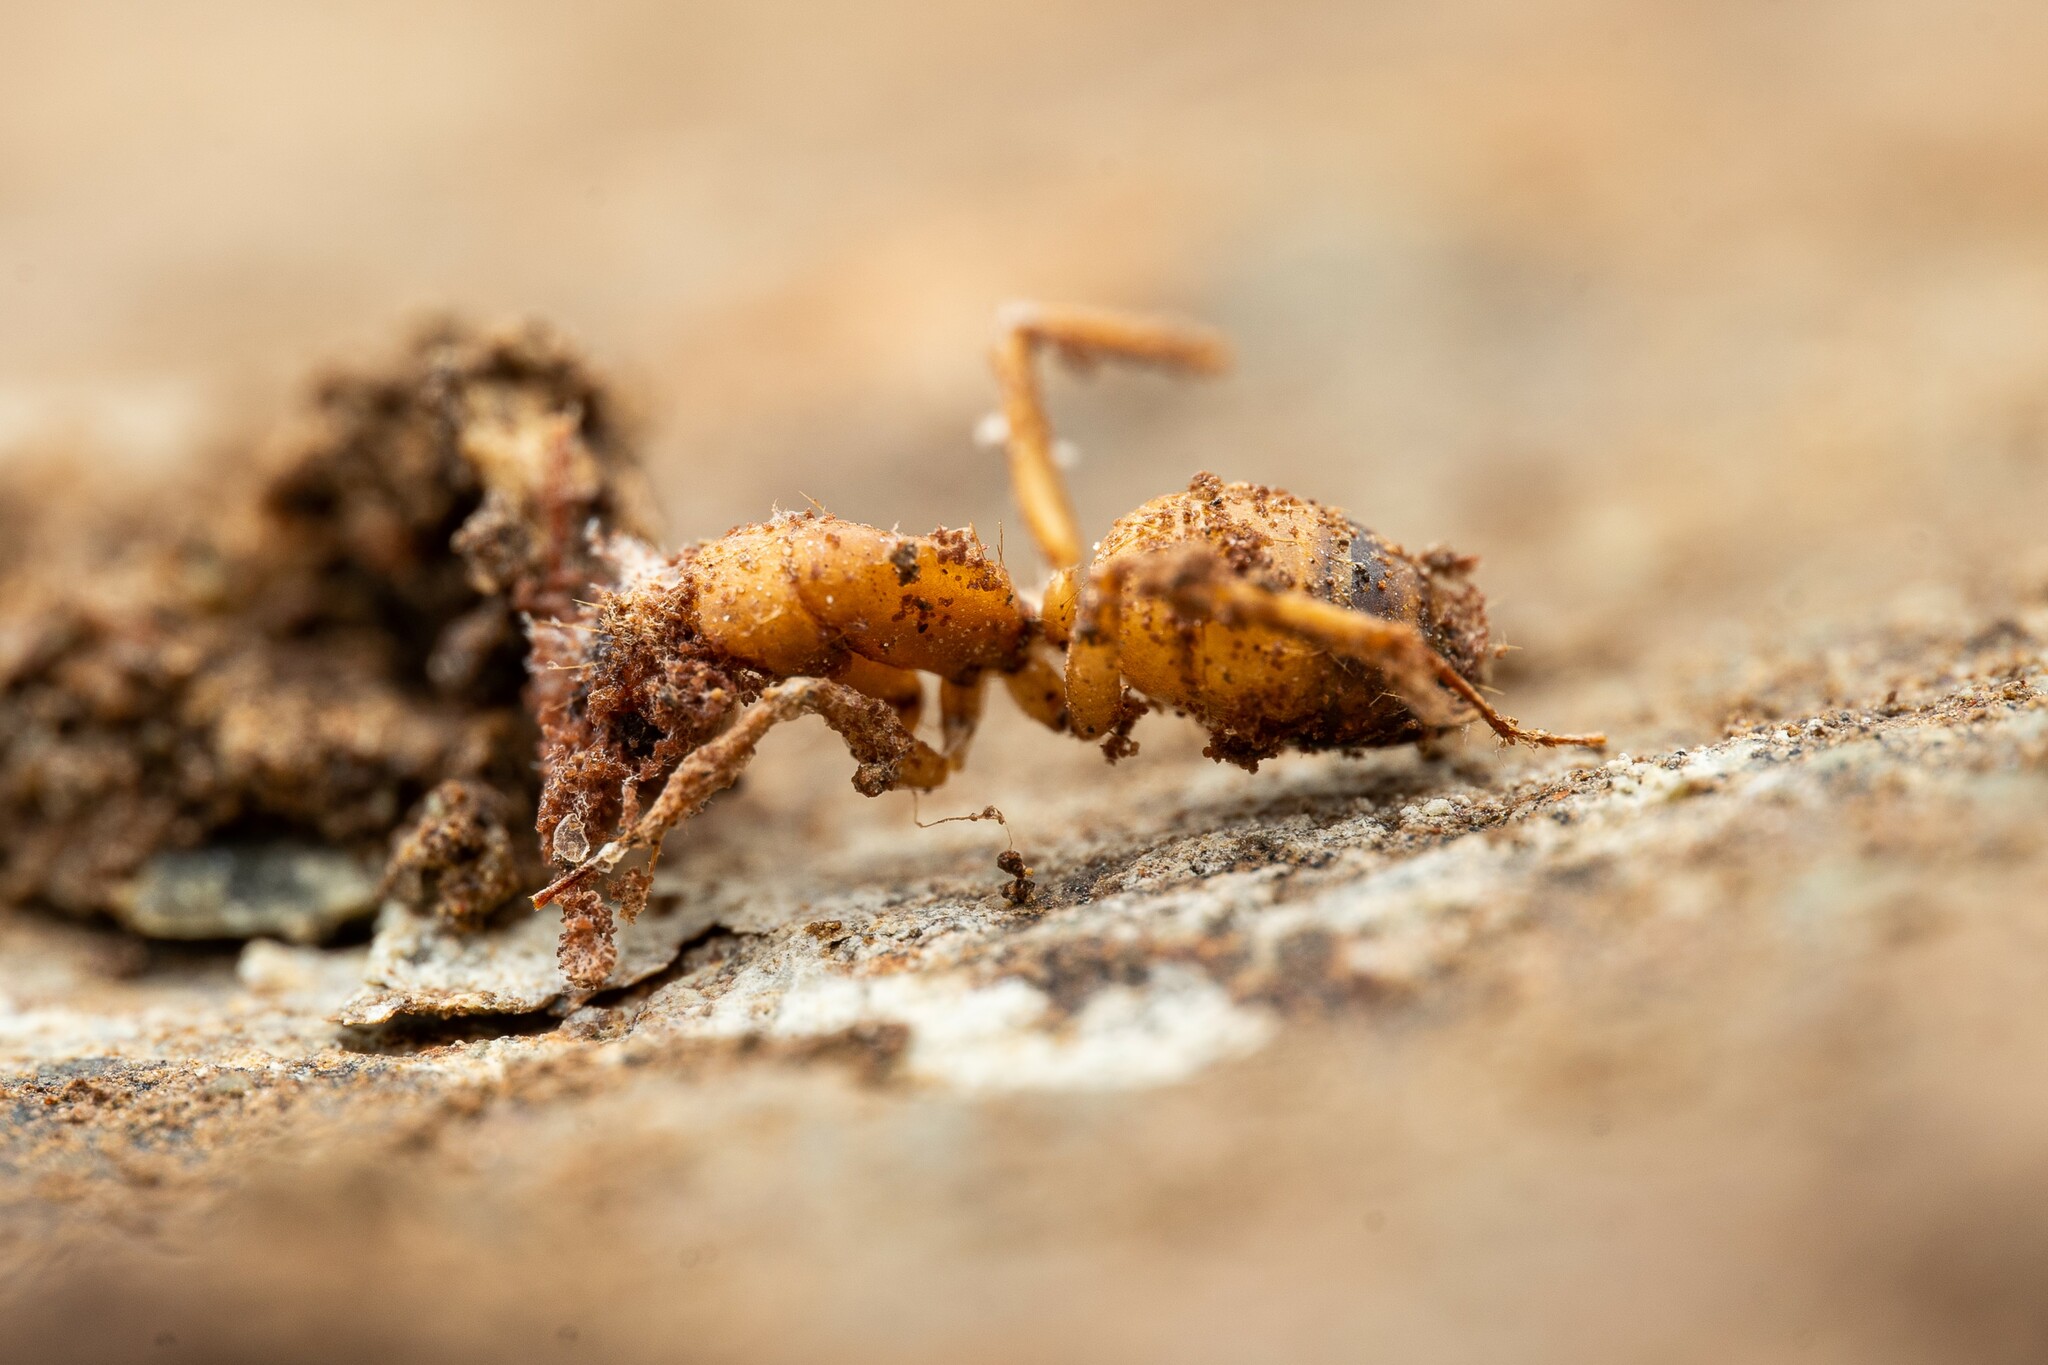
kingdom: Animalia
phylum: Arthropoda
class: Insecta
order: Hymenoptera
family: Formicidae
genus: Camponotus
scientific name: Camponotus sansabeanus
